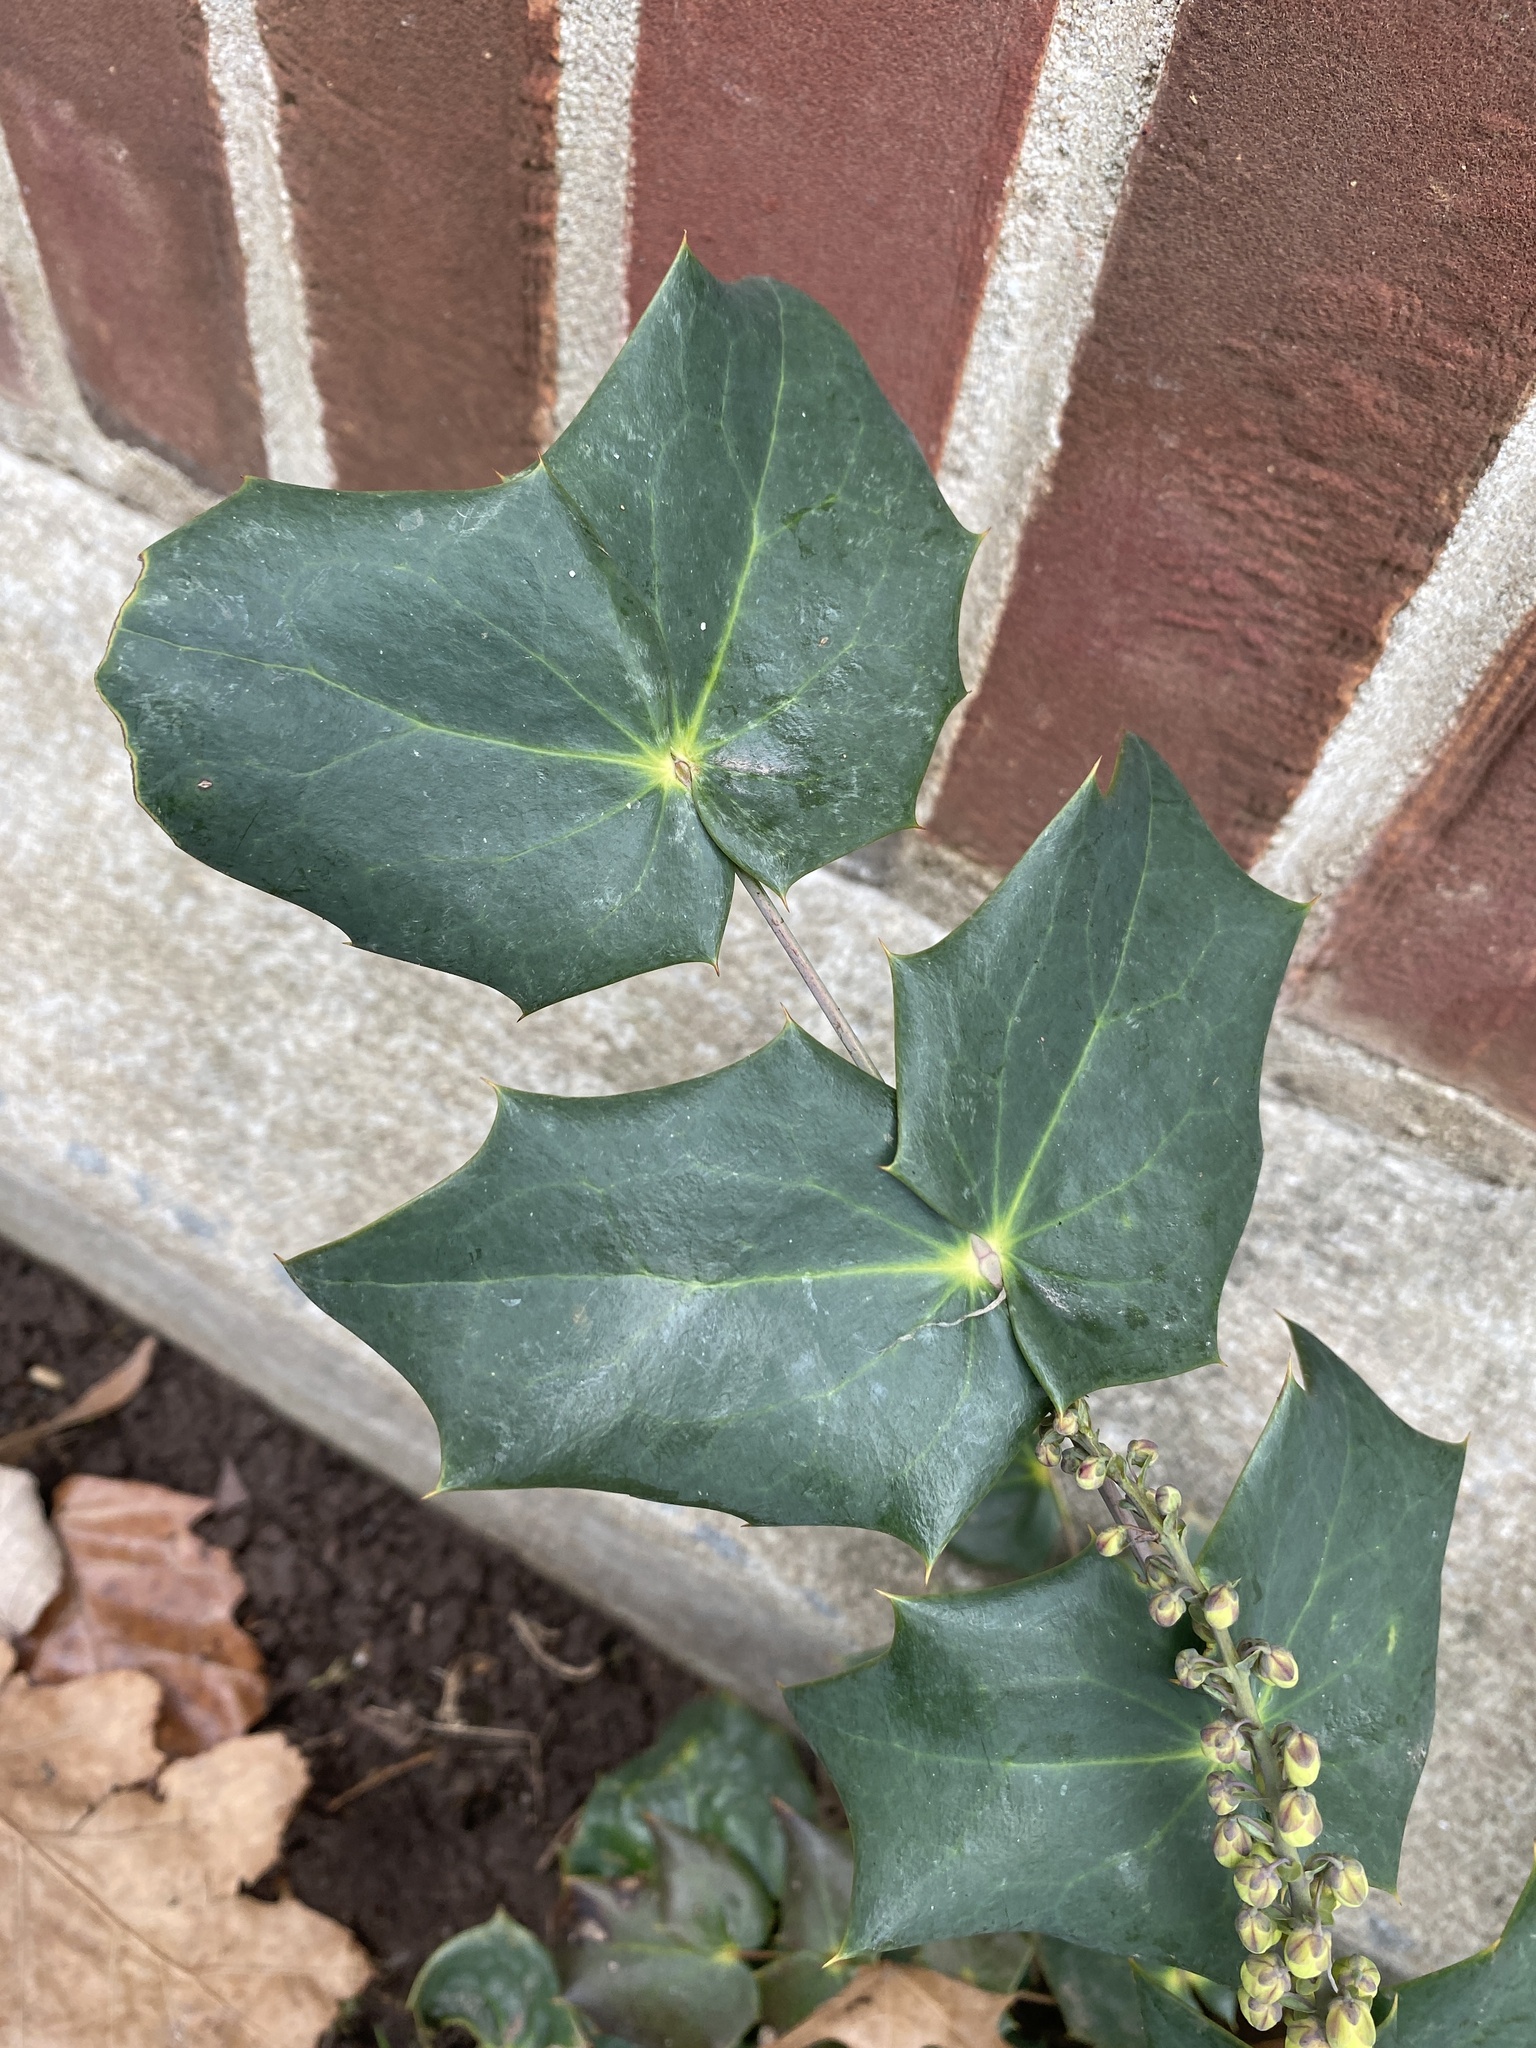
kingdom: Plantae
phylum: Tracheophyta
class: Magnoliopsida
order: Ranunculales
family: Berberidaceae
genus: Mahonia
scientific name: Mahonia bealei
